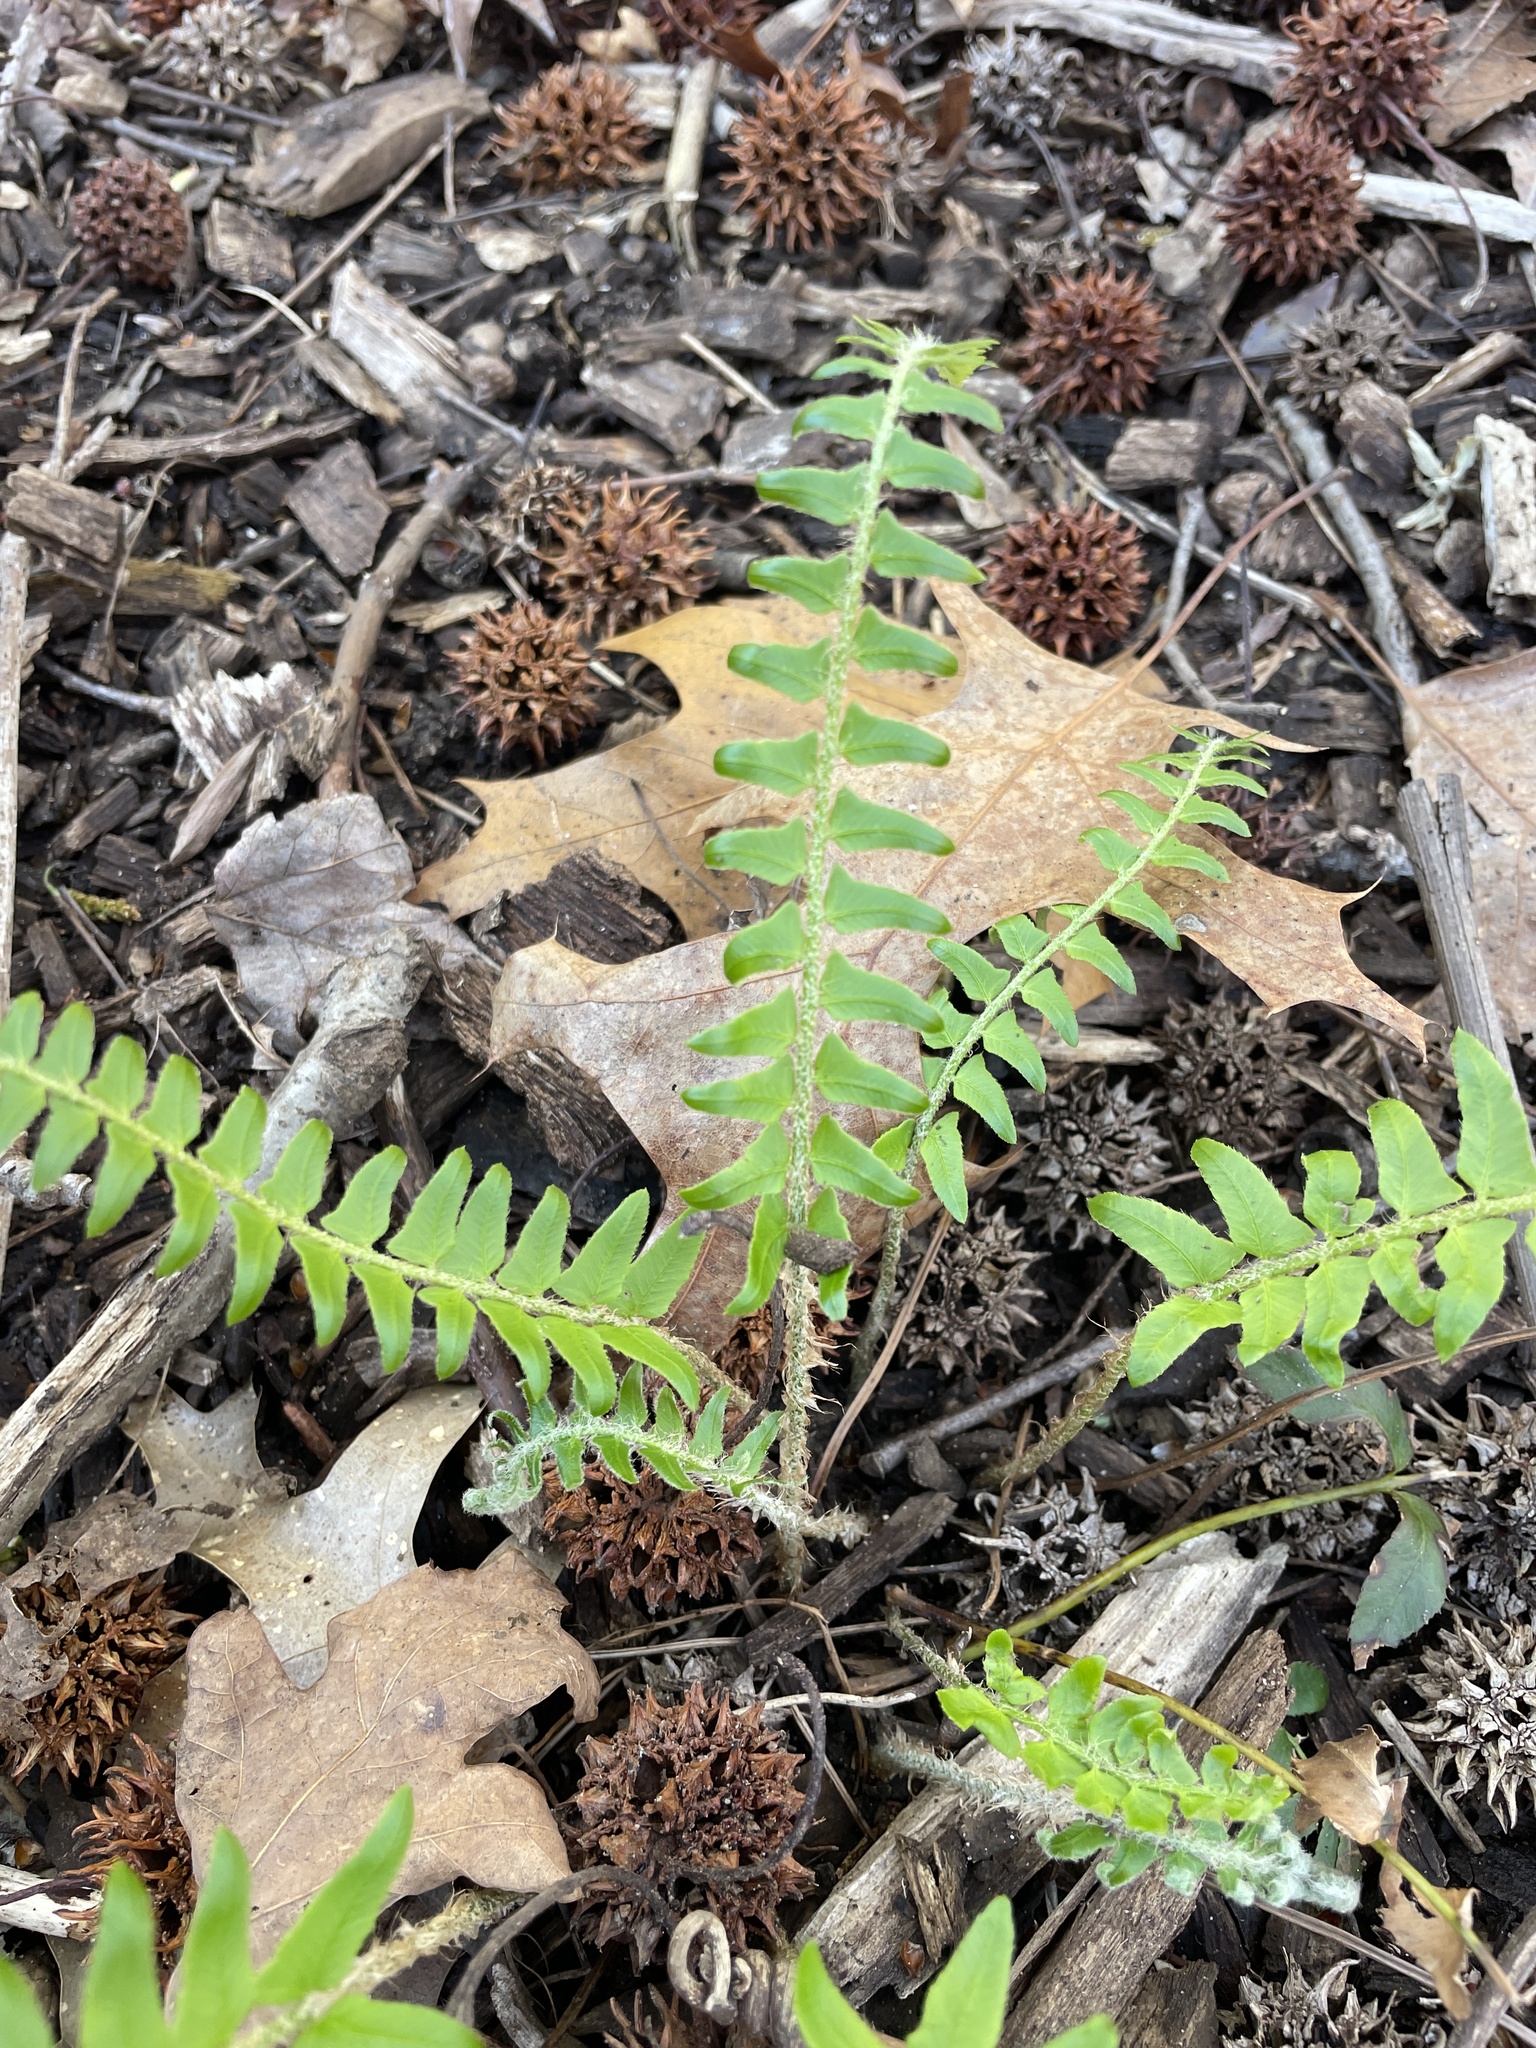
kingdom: Plantae
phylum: Tracheophyta
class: Polypodiopsida
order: Polypodiales
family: Dryopteridaceae
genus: Polystichum
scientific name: Polystichum acrostichoides
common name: Christmas fern
